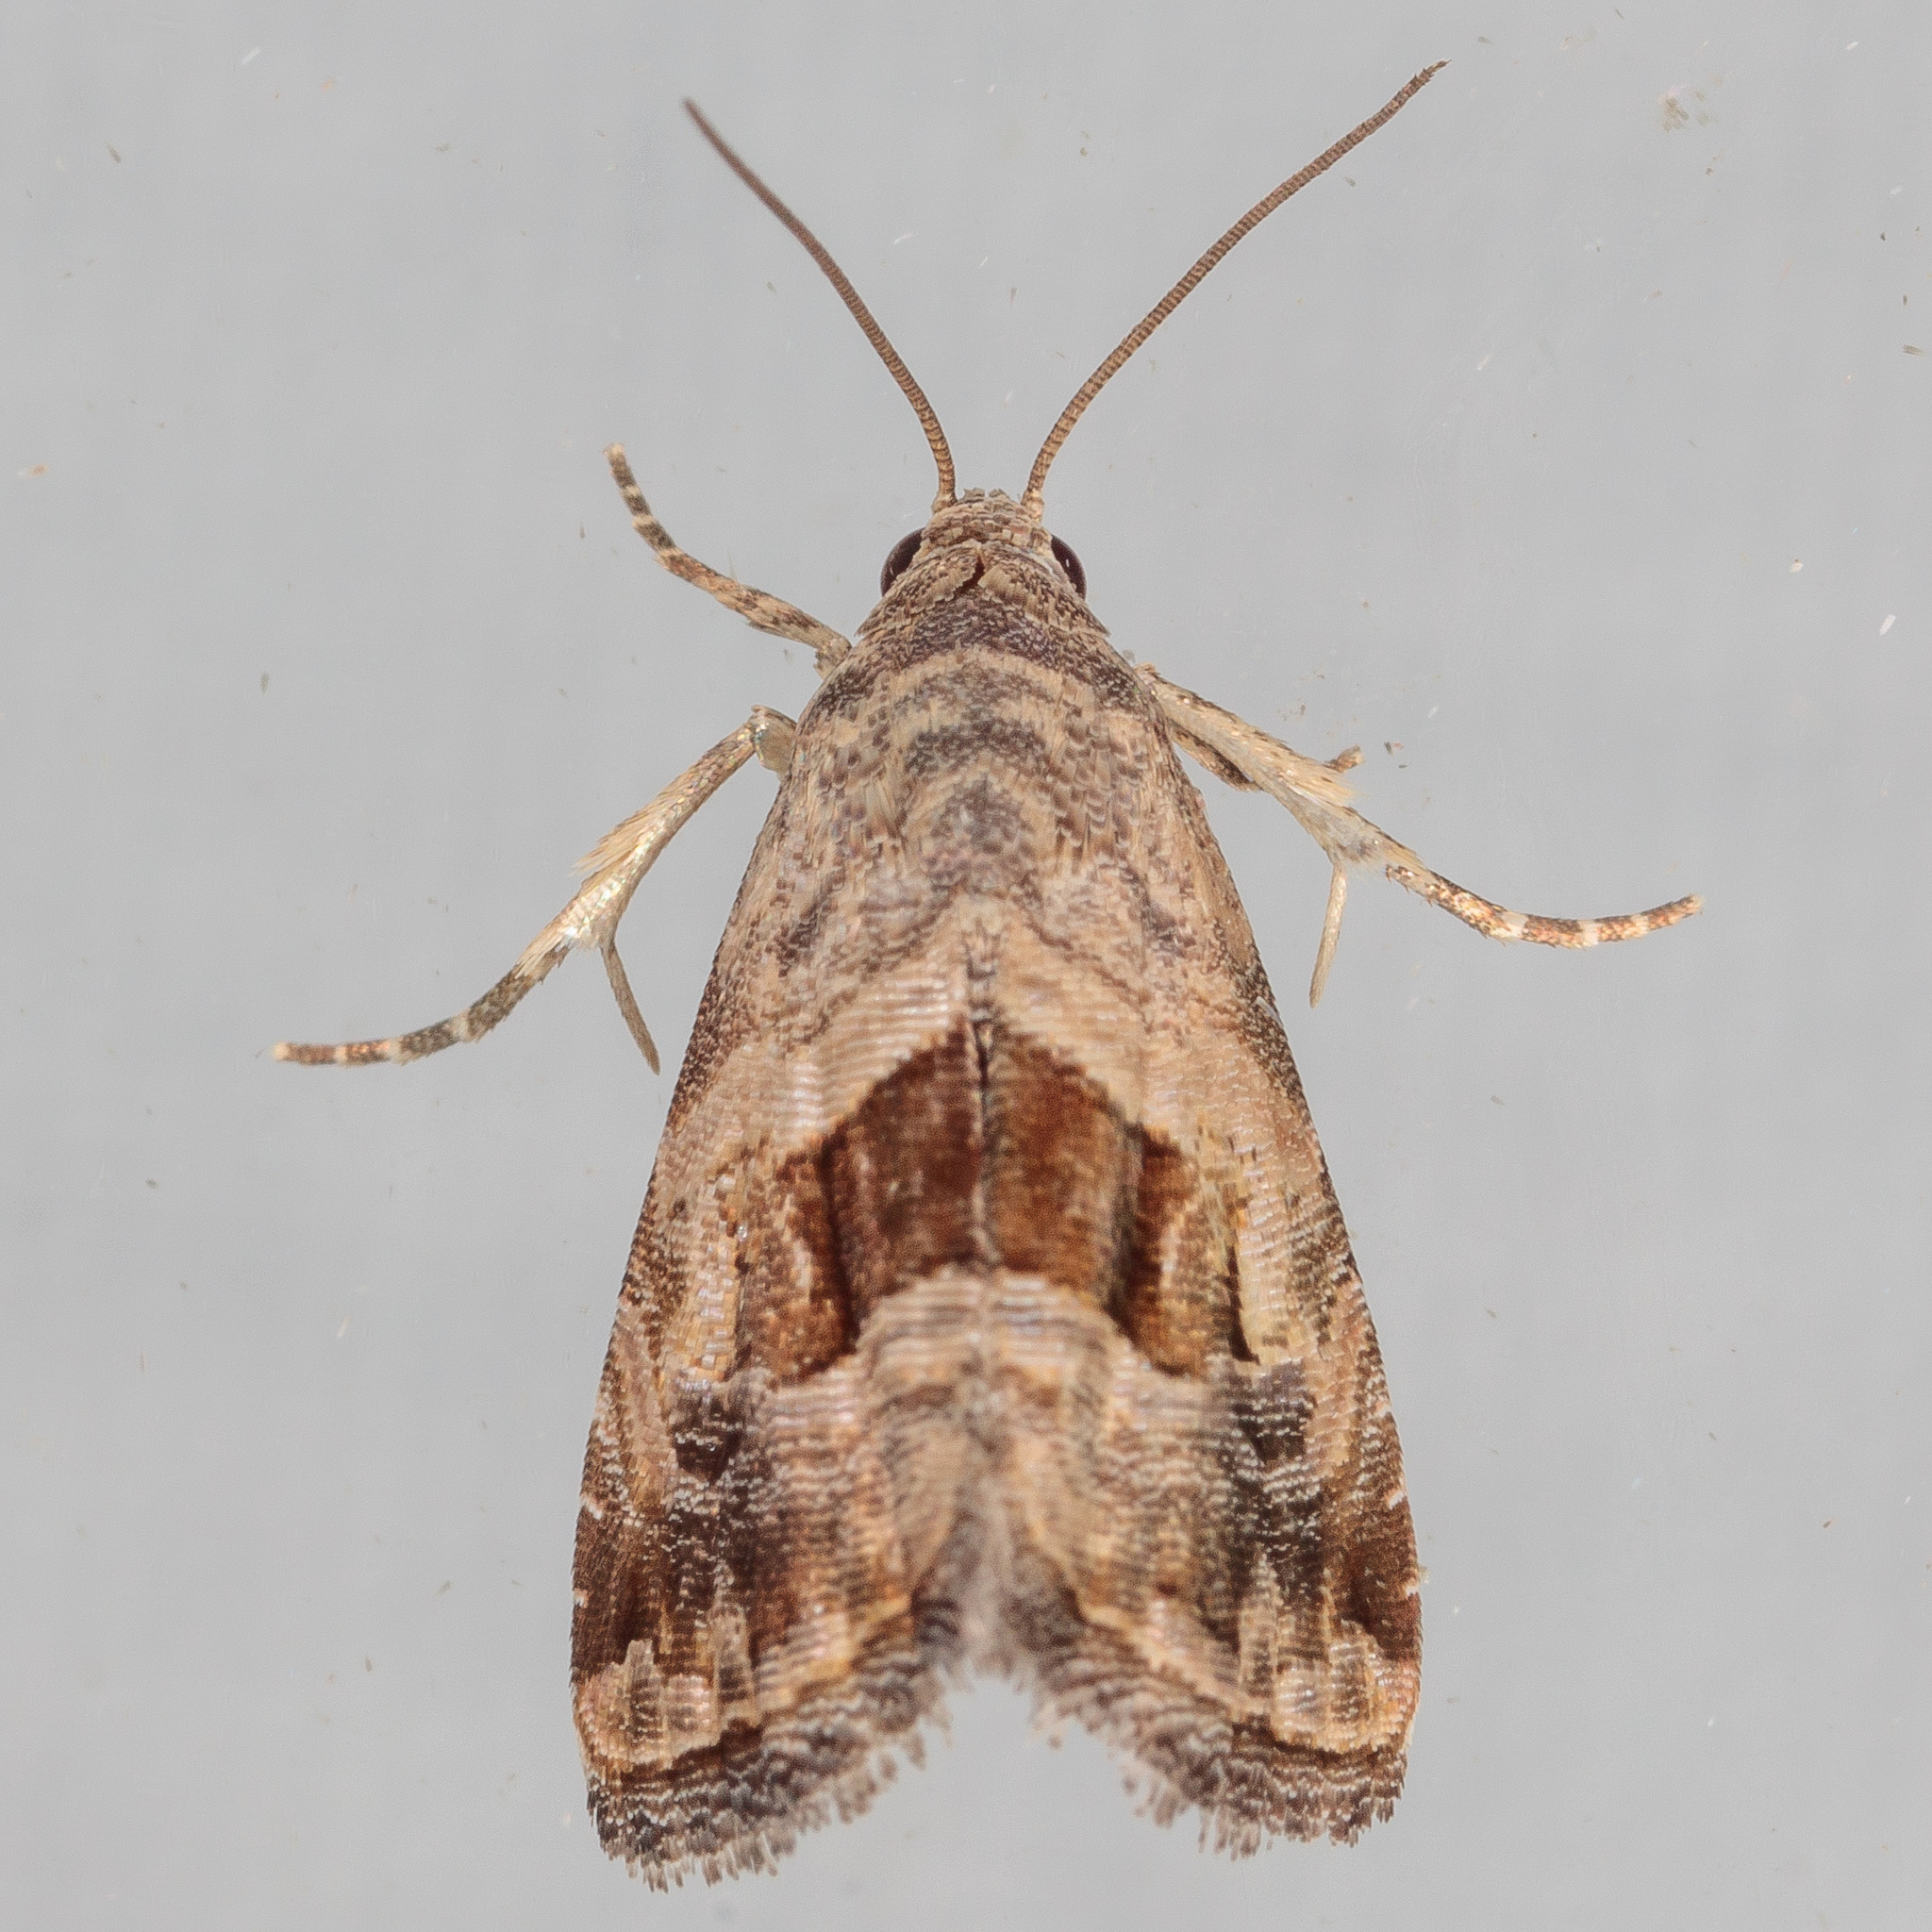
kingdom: Animalia
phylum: Arthropoda
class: Insecta
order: Lepidoptera
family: Noctuidae
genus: Tripudia
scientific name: Tripudia quadrifera
